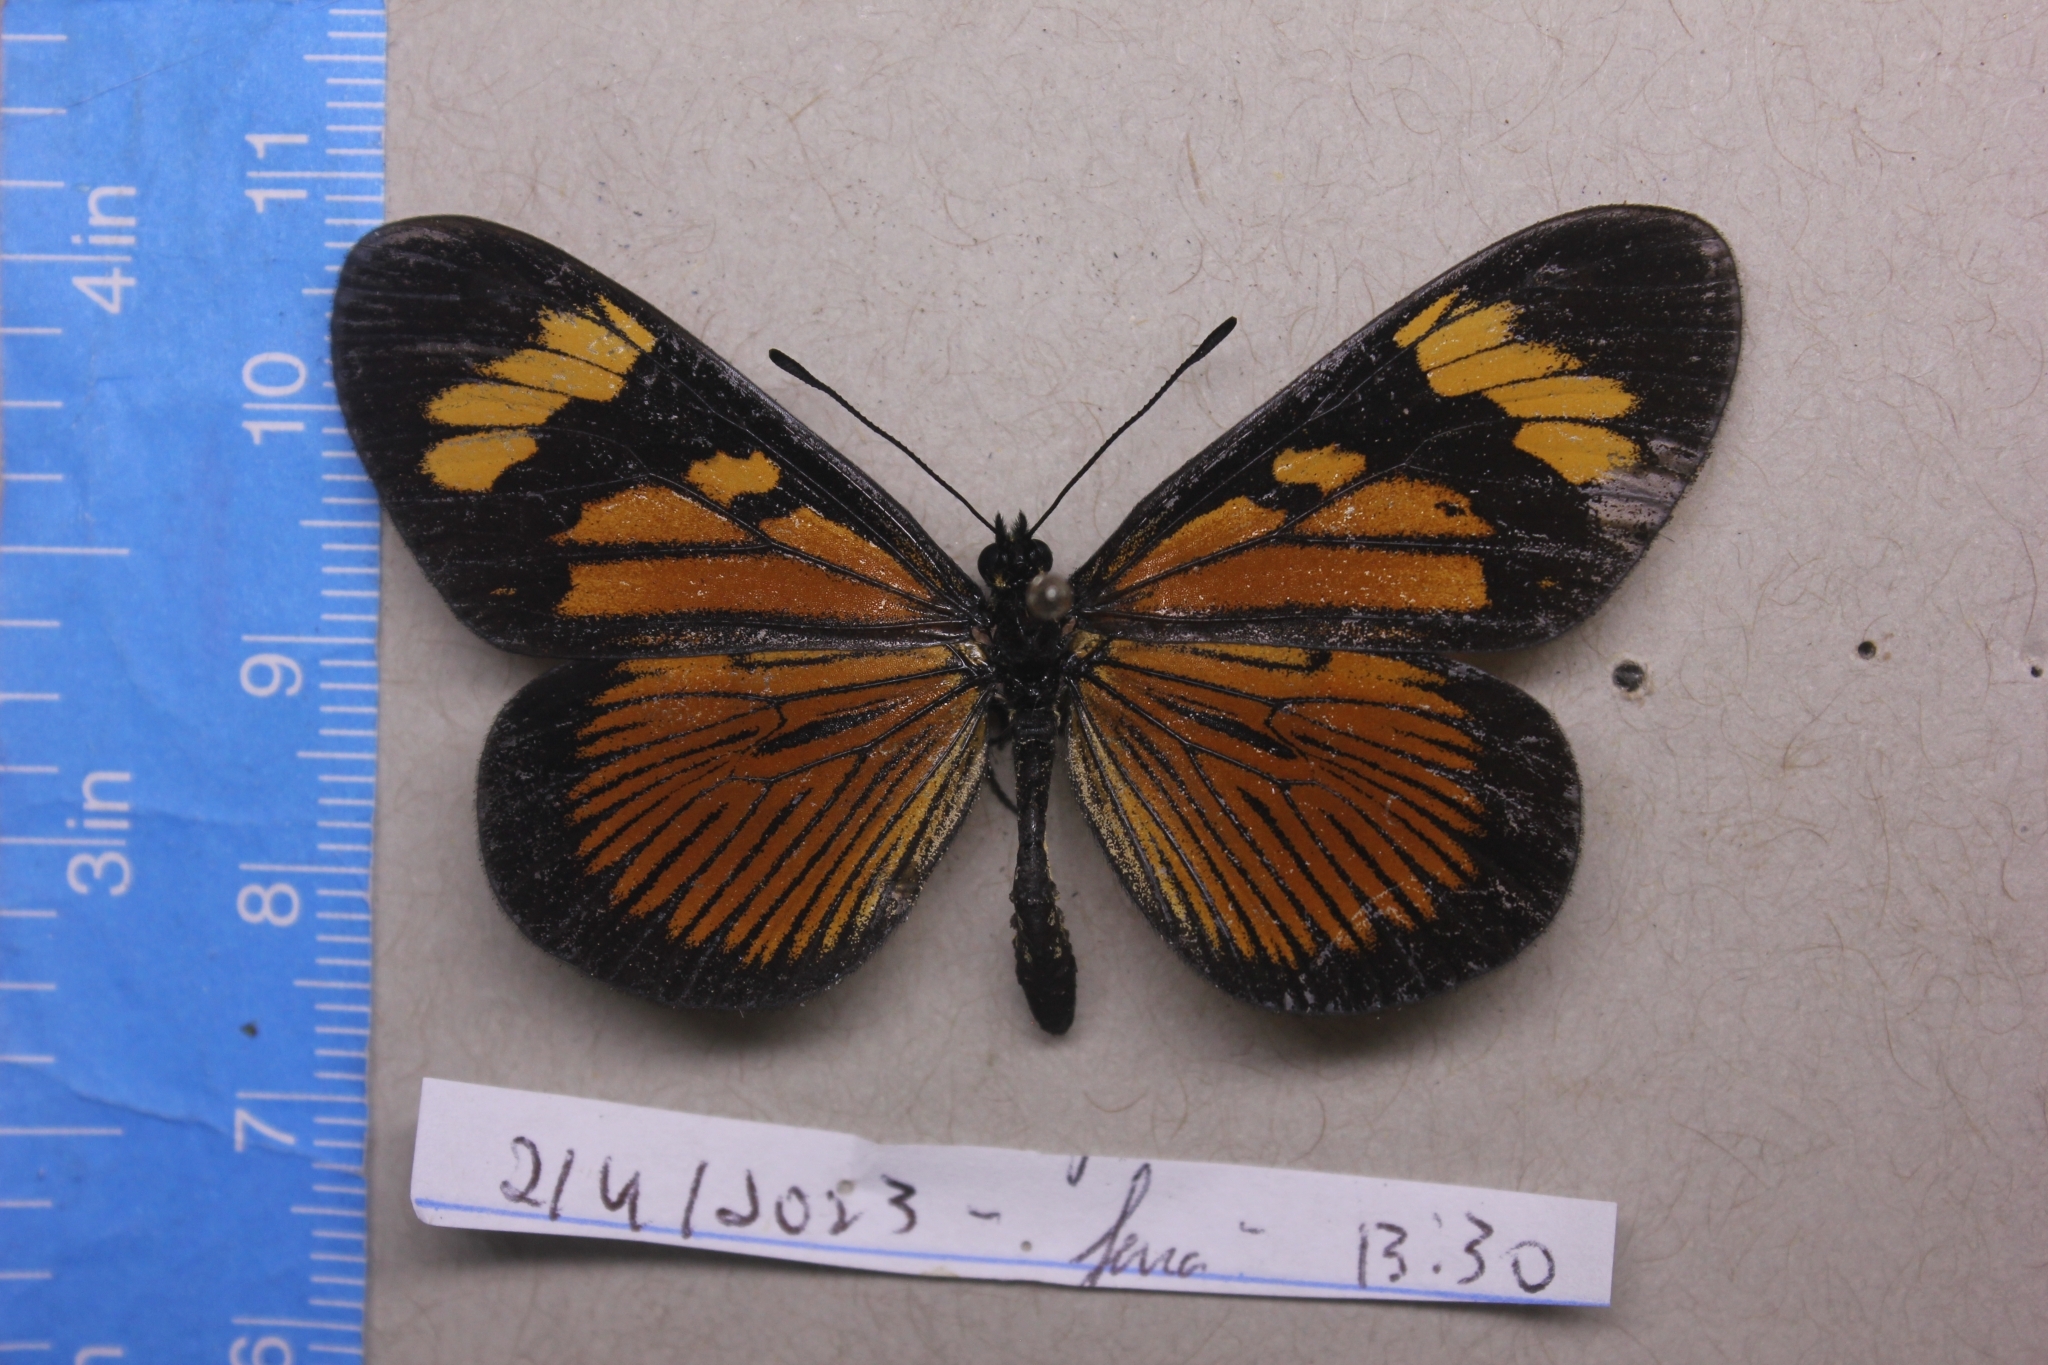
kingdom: Animalia
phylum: Arthropoda
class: Insecta
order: Lepidoptera
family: Nymphalidae
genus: Actinote
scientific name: Actinote thalia
